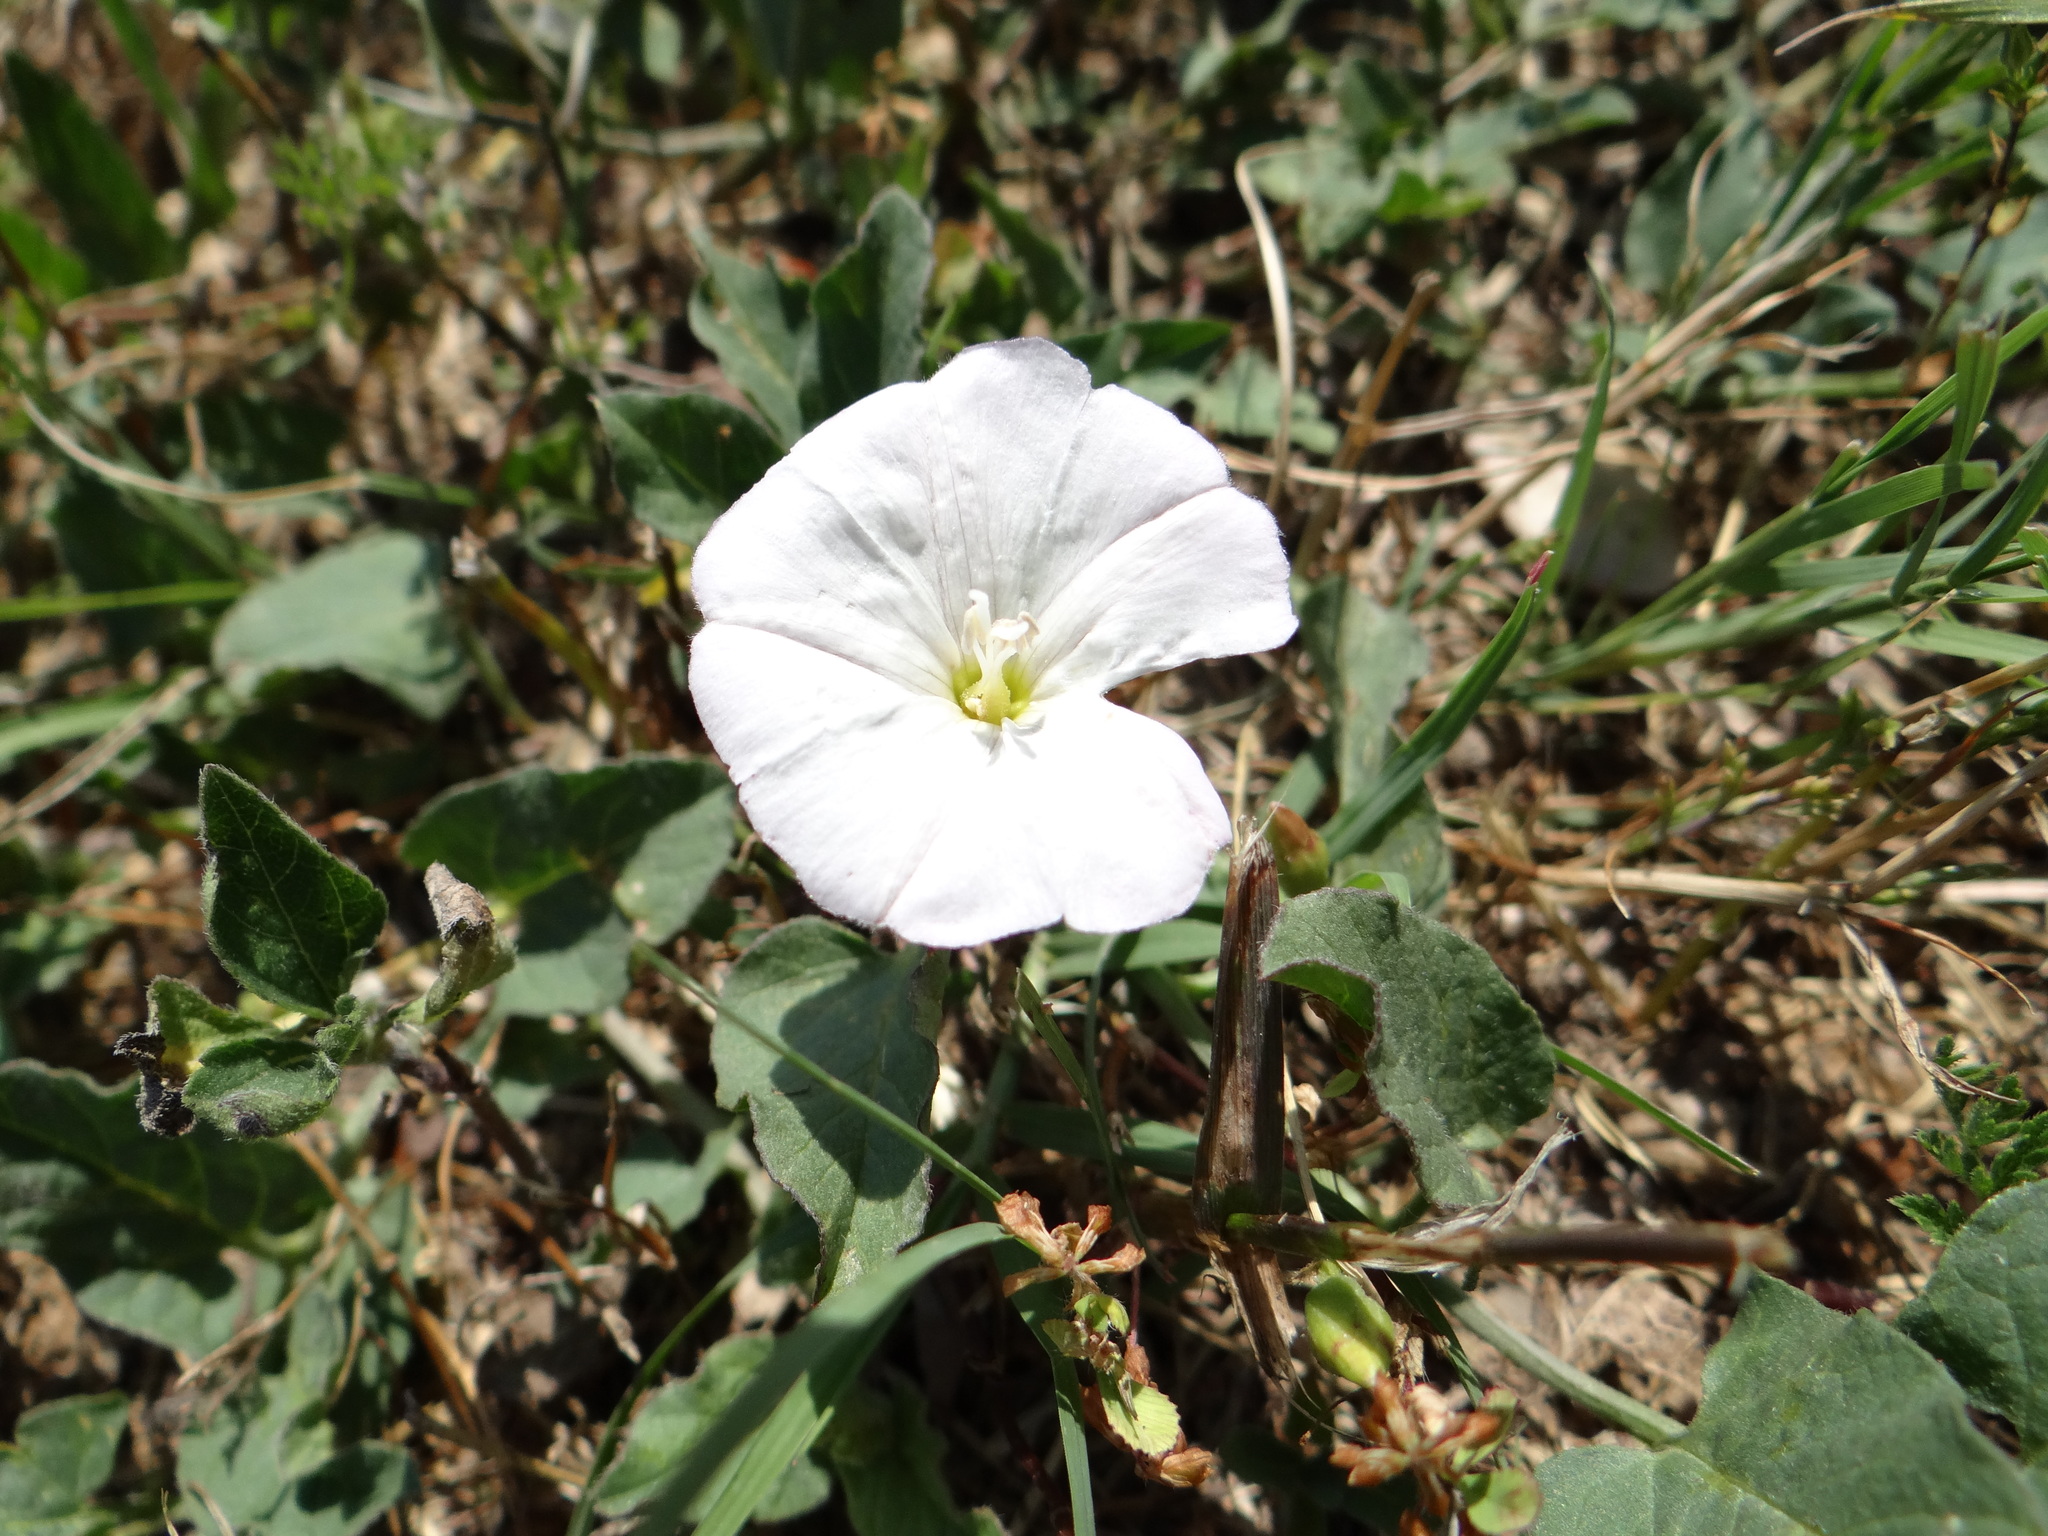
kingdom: Plantae
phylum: Tracheophyta
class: Magnoliopsida
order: Solanales
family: Convolvulaceae
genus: Convolvulus
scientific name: Convolvulus arvensis
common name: Field bindweed
